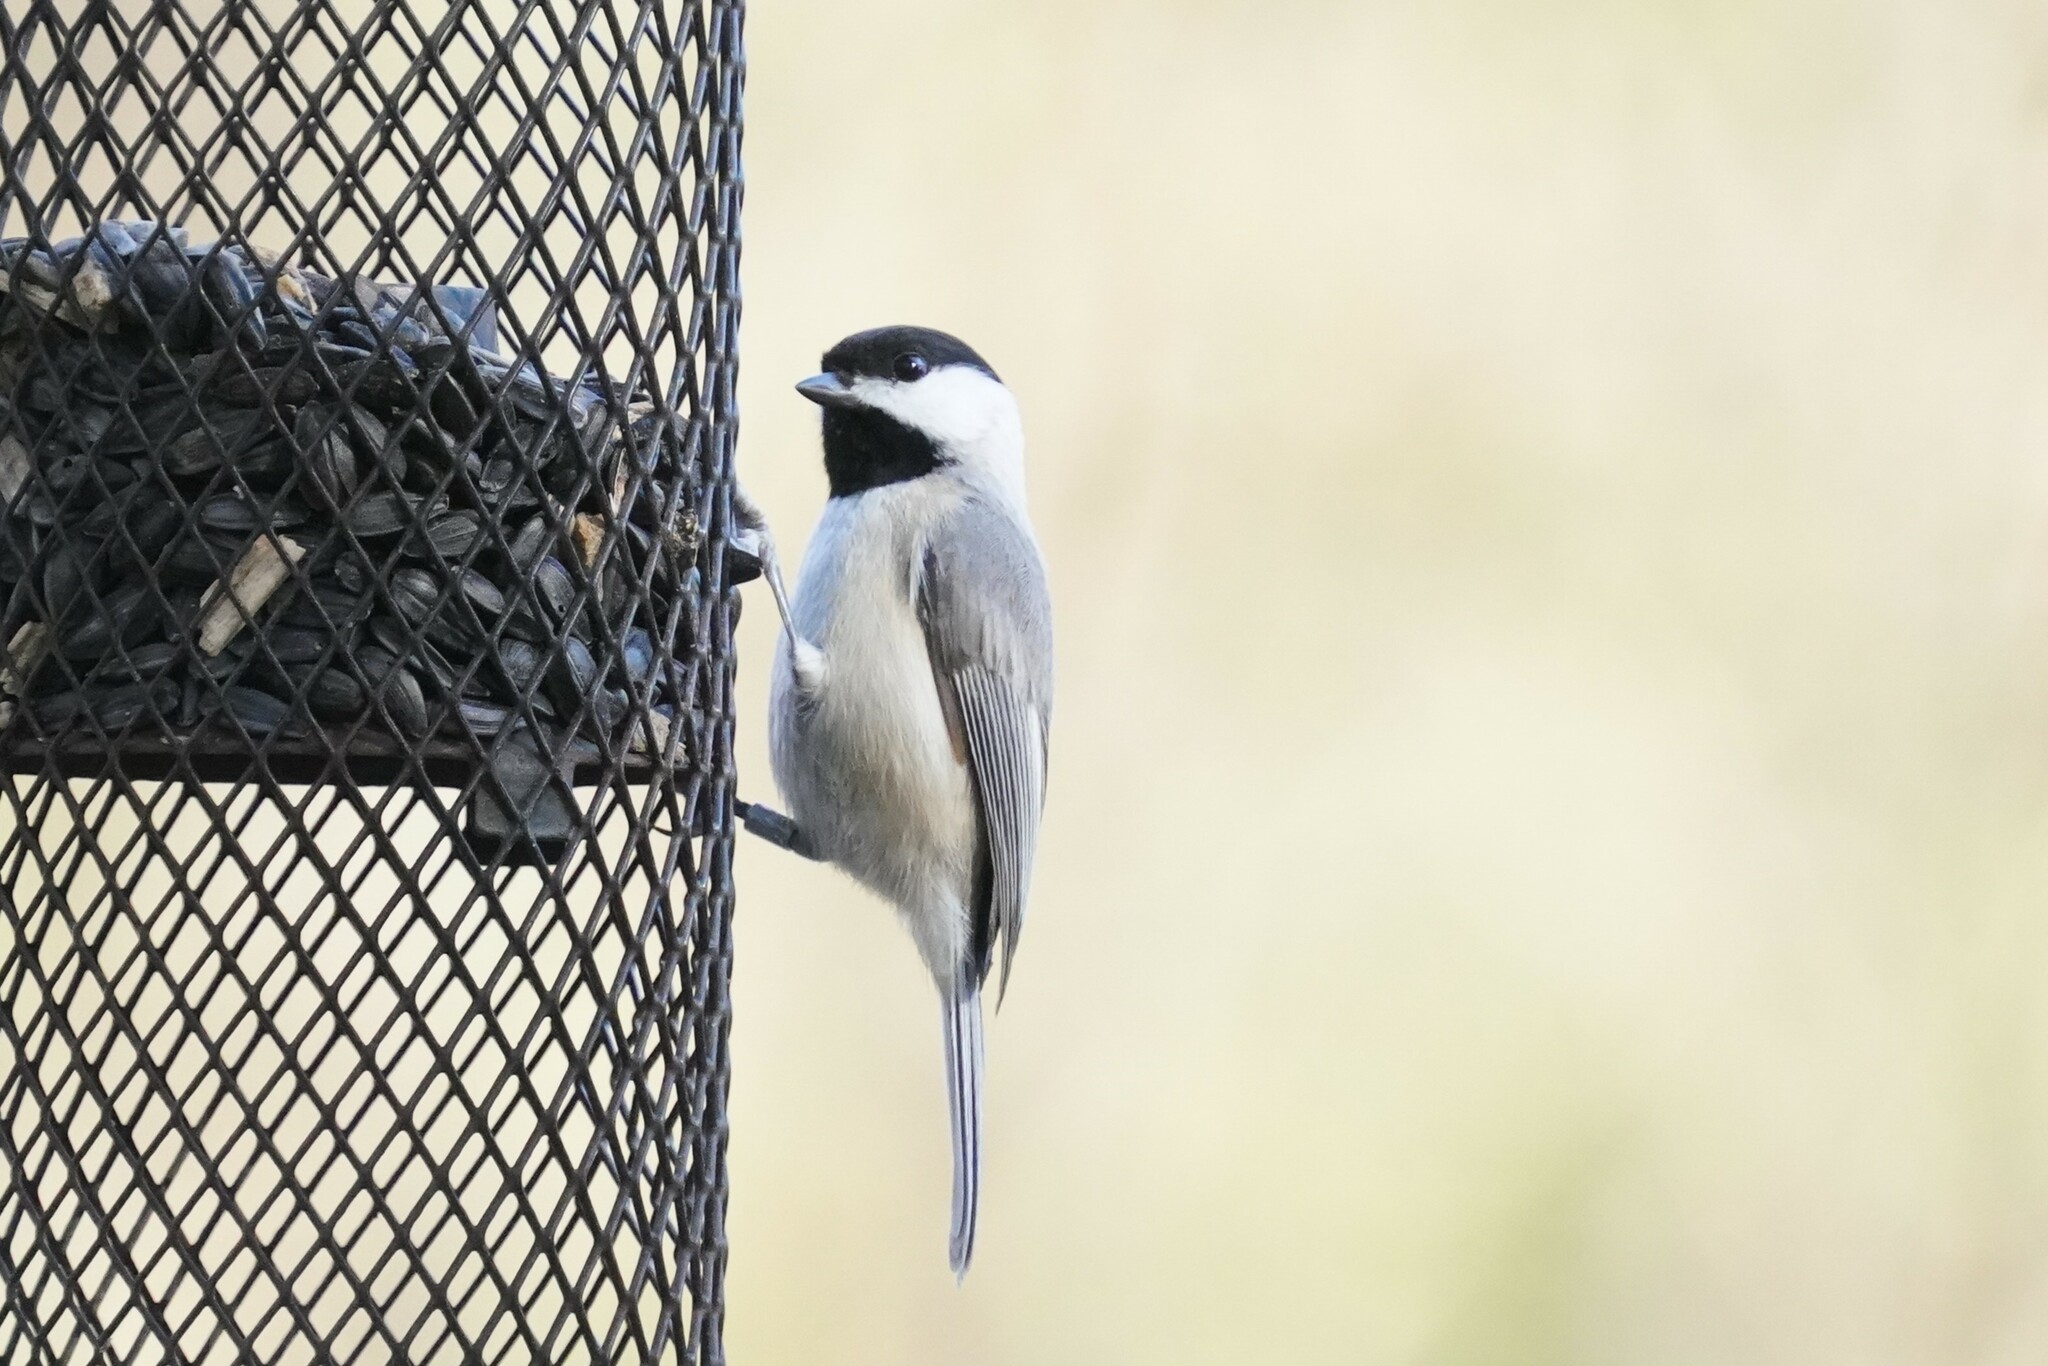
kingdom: Animalia
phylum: Chordata
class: Aves
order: Passeriformes
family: Paridae
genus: Poecile
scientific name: Poecile carolinensis
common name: Carolina chickadee
